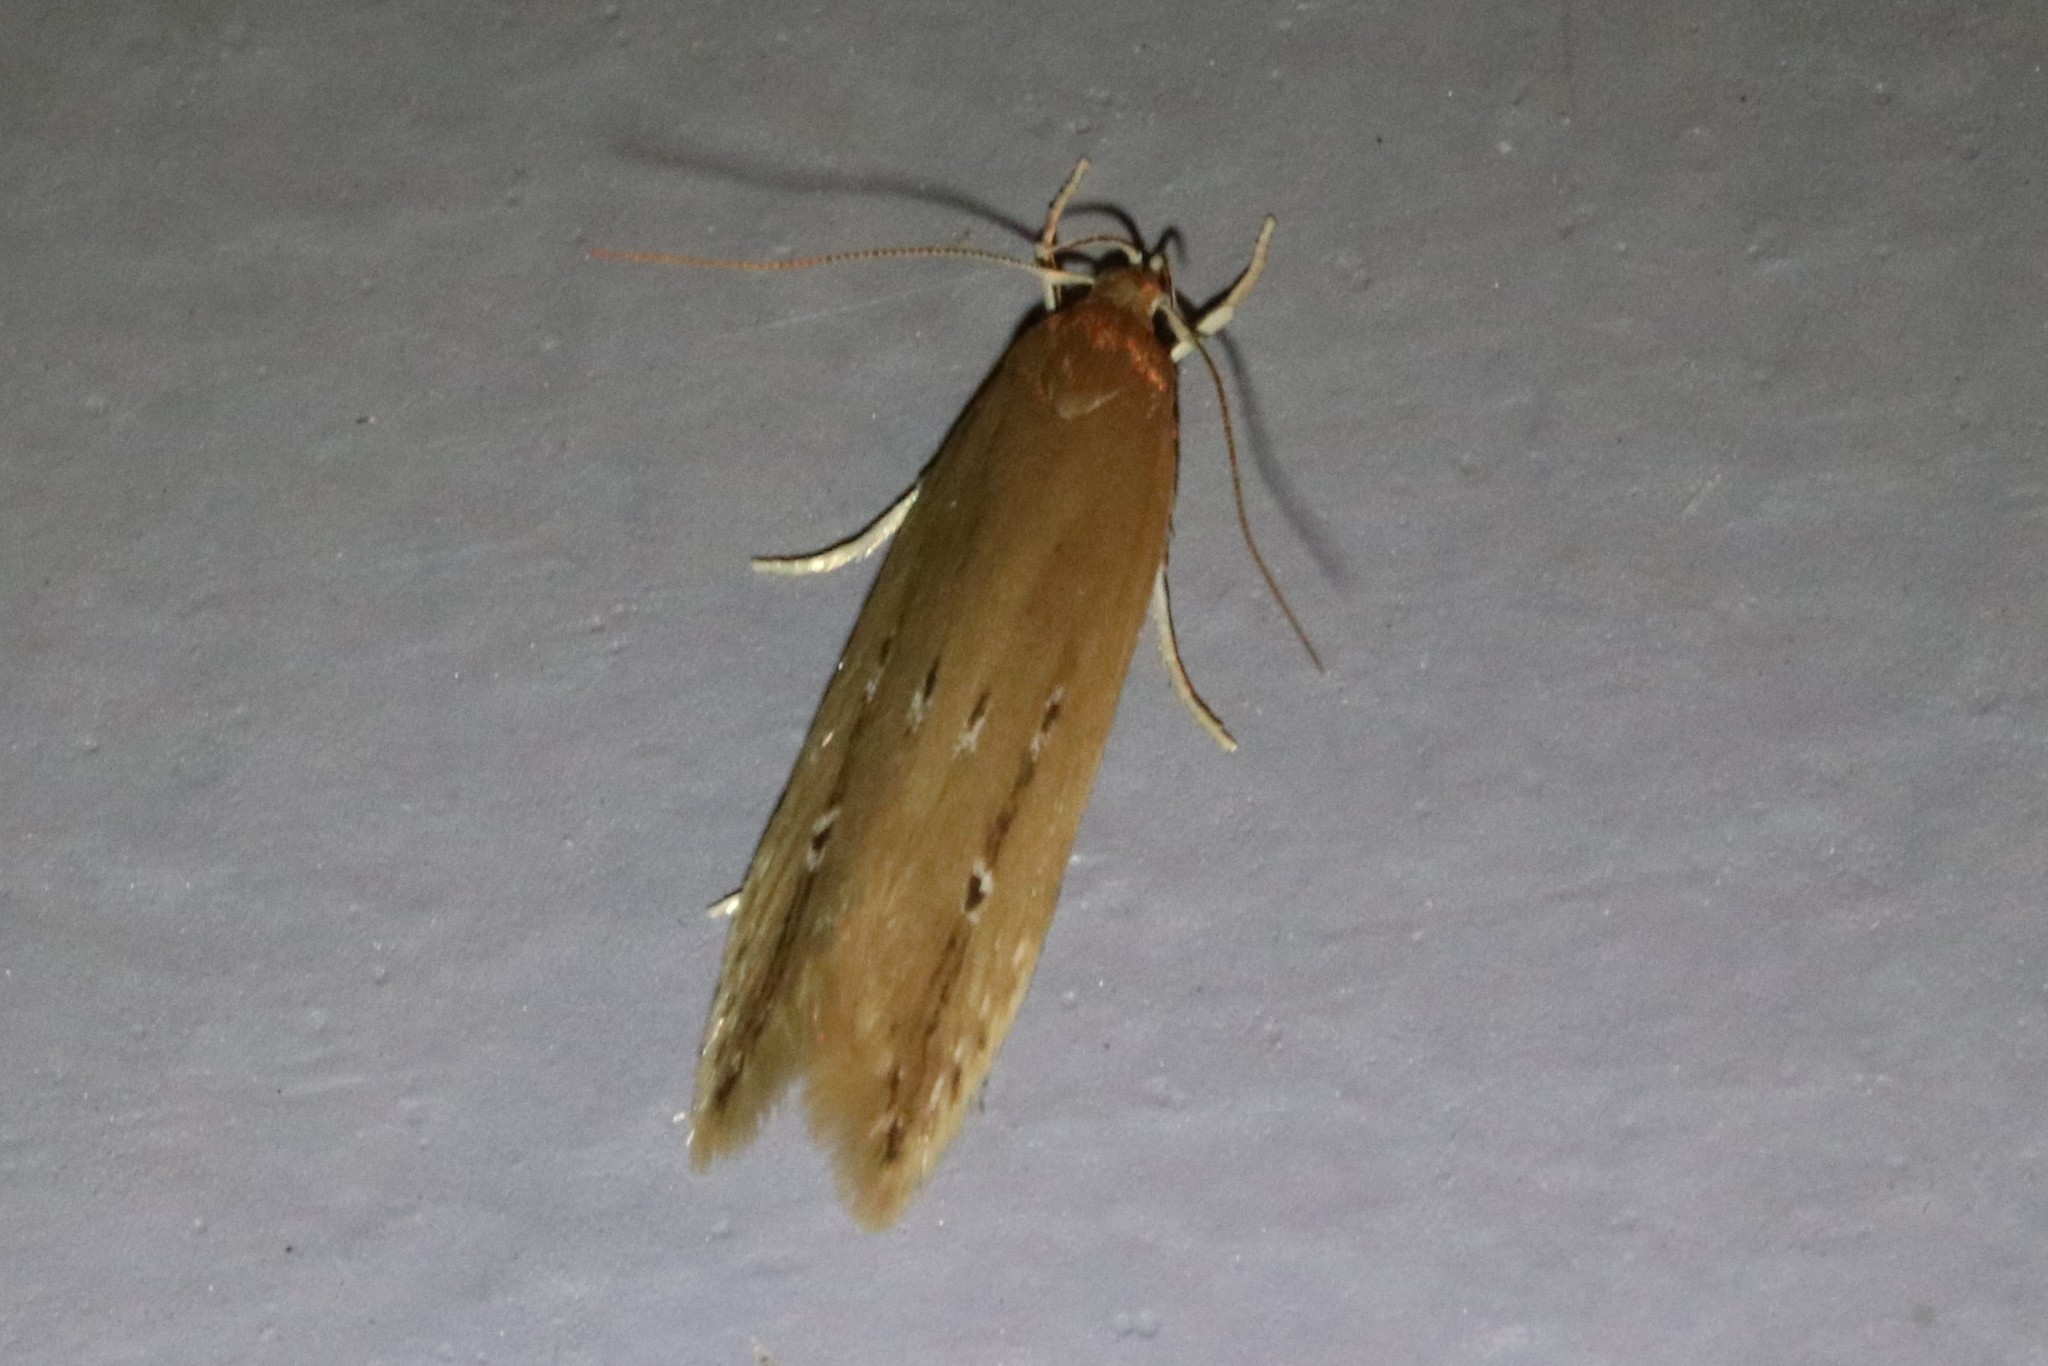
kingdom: Animalia
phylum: Arthropoda
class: Insecta
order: Lepidoptera
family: Cosmopterigidae
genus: Limnaecia
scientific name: Limnaecia phragmitella
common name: Bulrush cosmet
